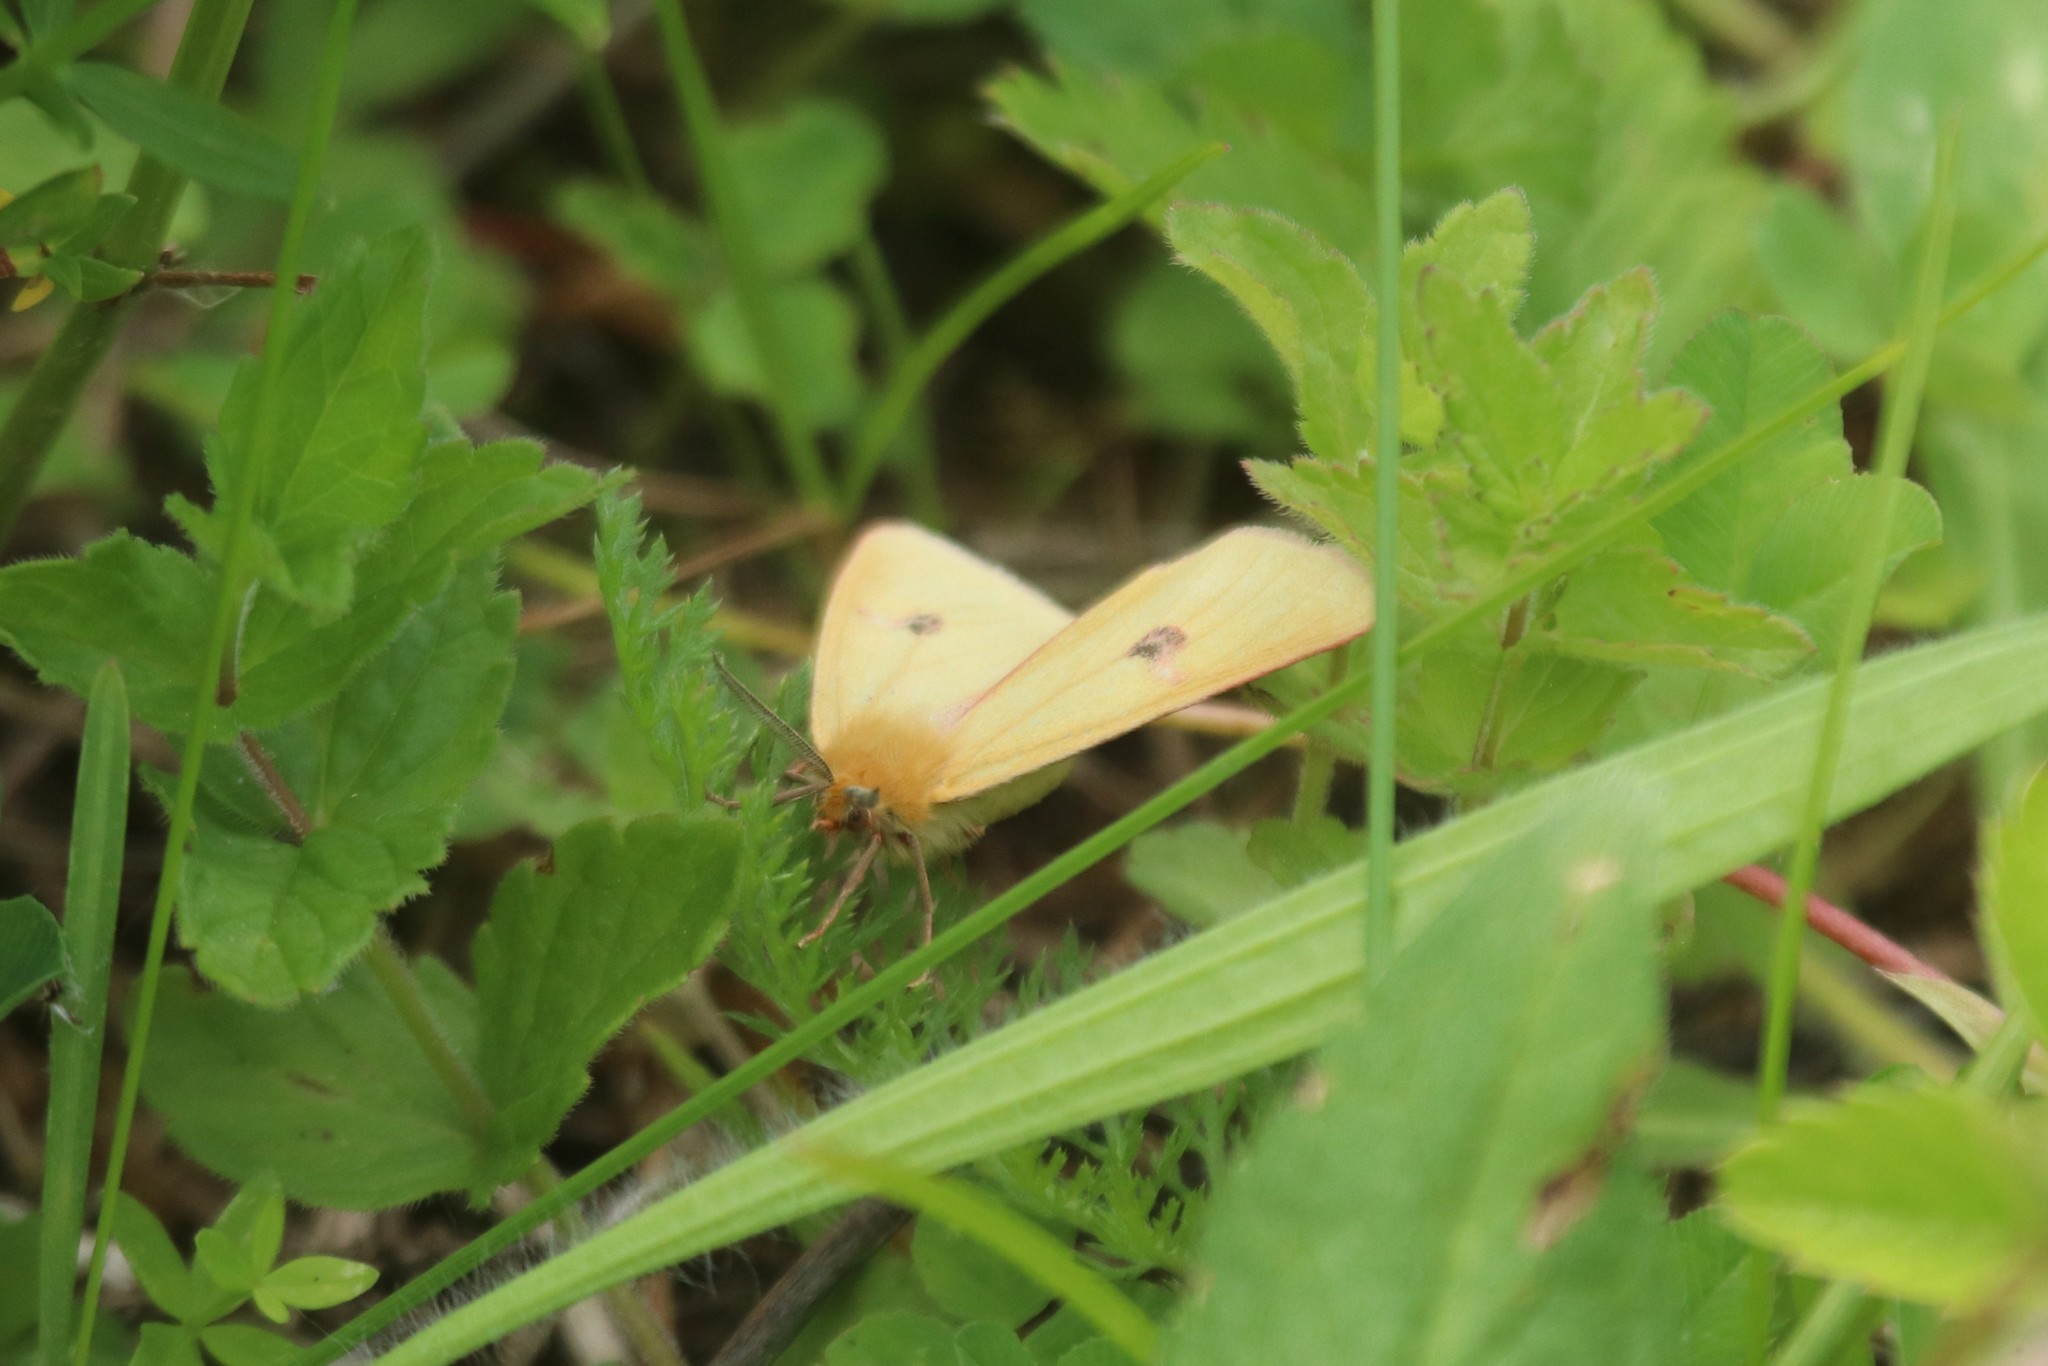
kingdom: Animalia
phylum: Arthropoda
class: Insecta
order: Lepidoptera
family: Erebidae
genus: Diacrisia
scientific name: Diacrisia sannio
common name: Clouded buff
